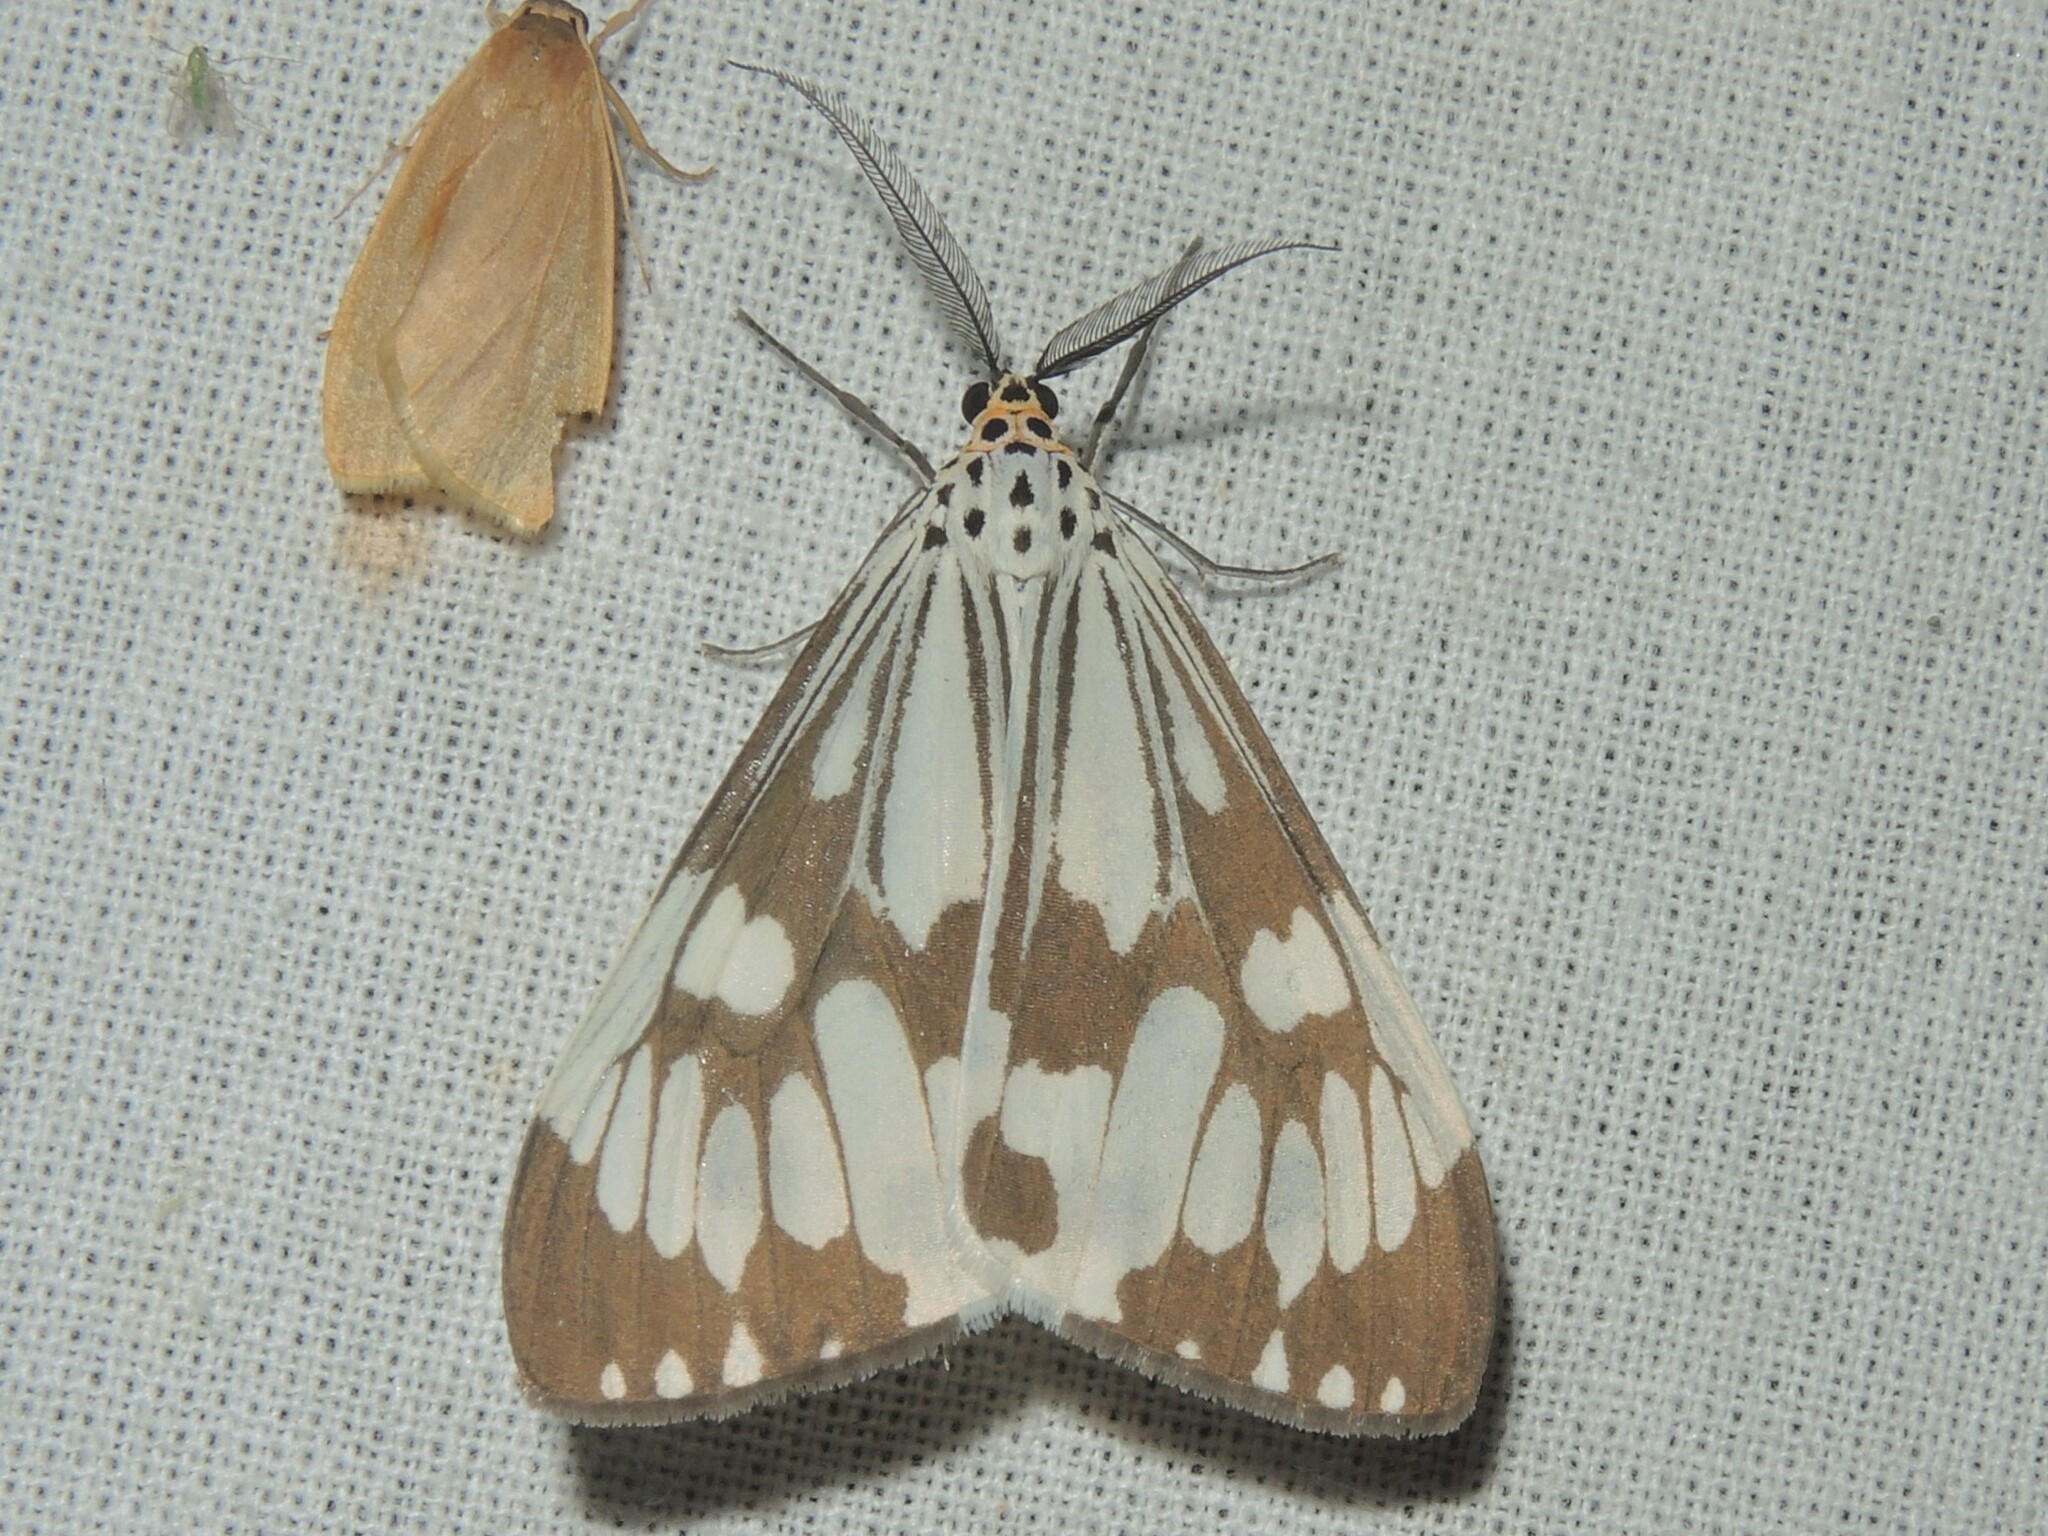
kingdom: Animalia
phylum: Arthropoda
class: Insecta
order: Lepidoptera
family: Erebidae
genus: Nyctemera
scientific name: Nyctemera adversata
